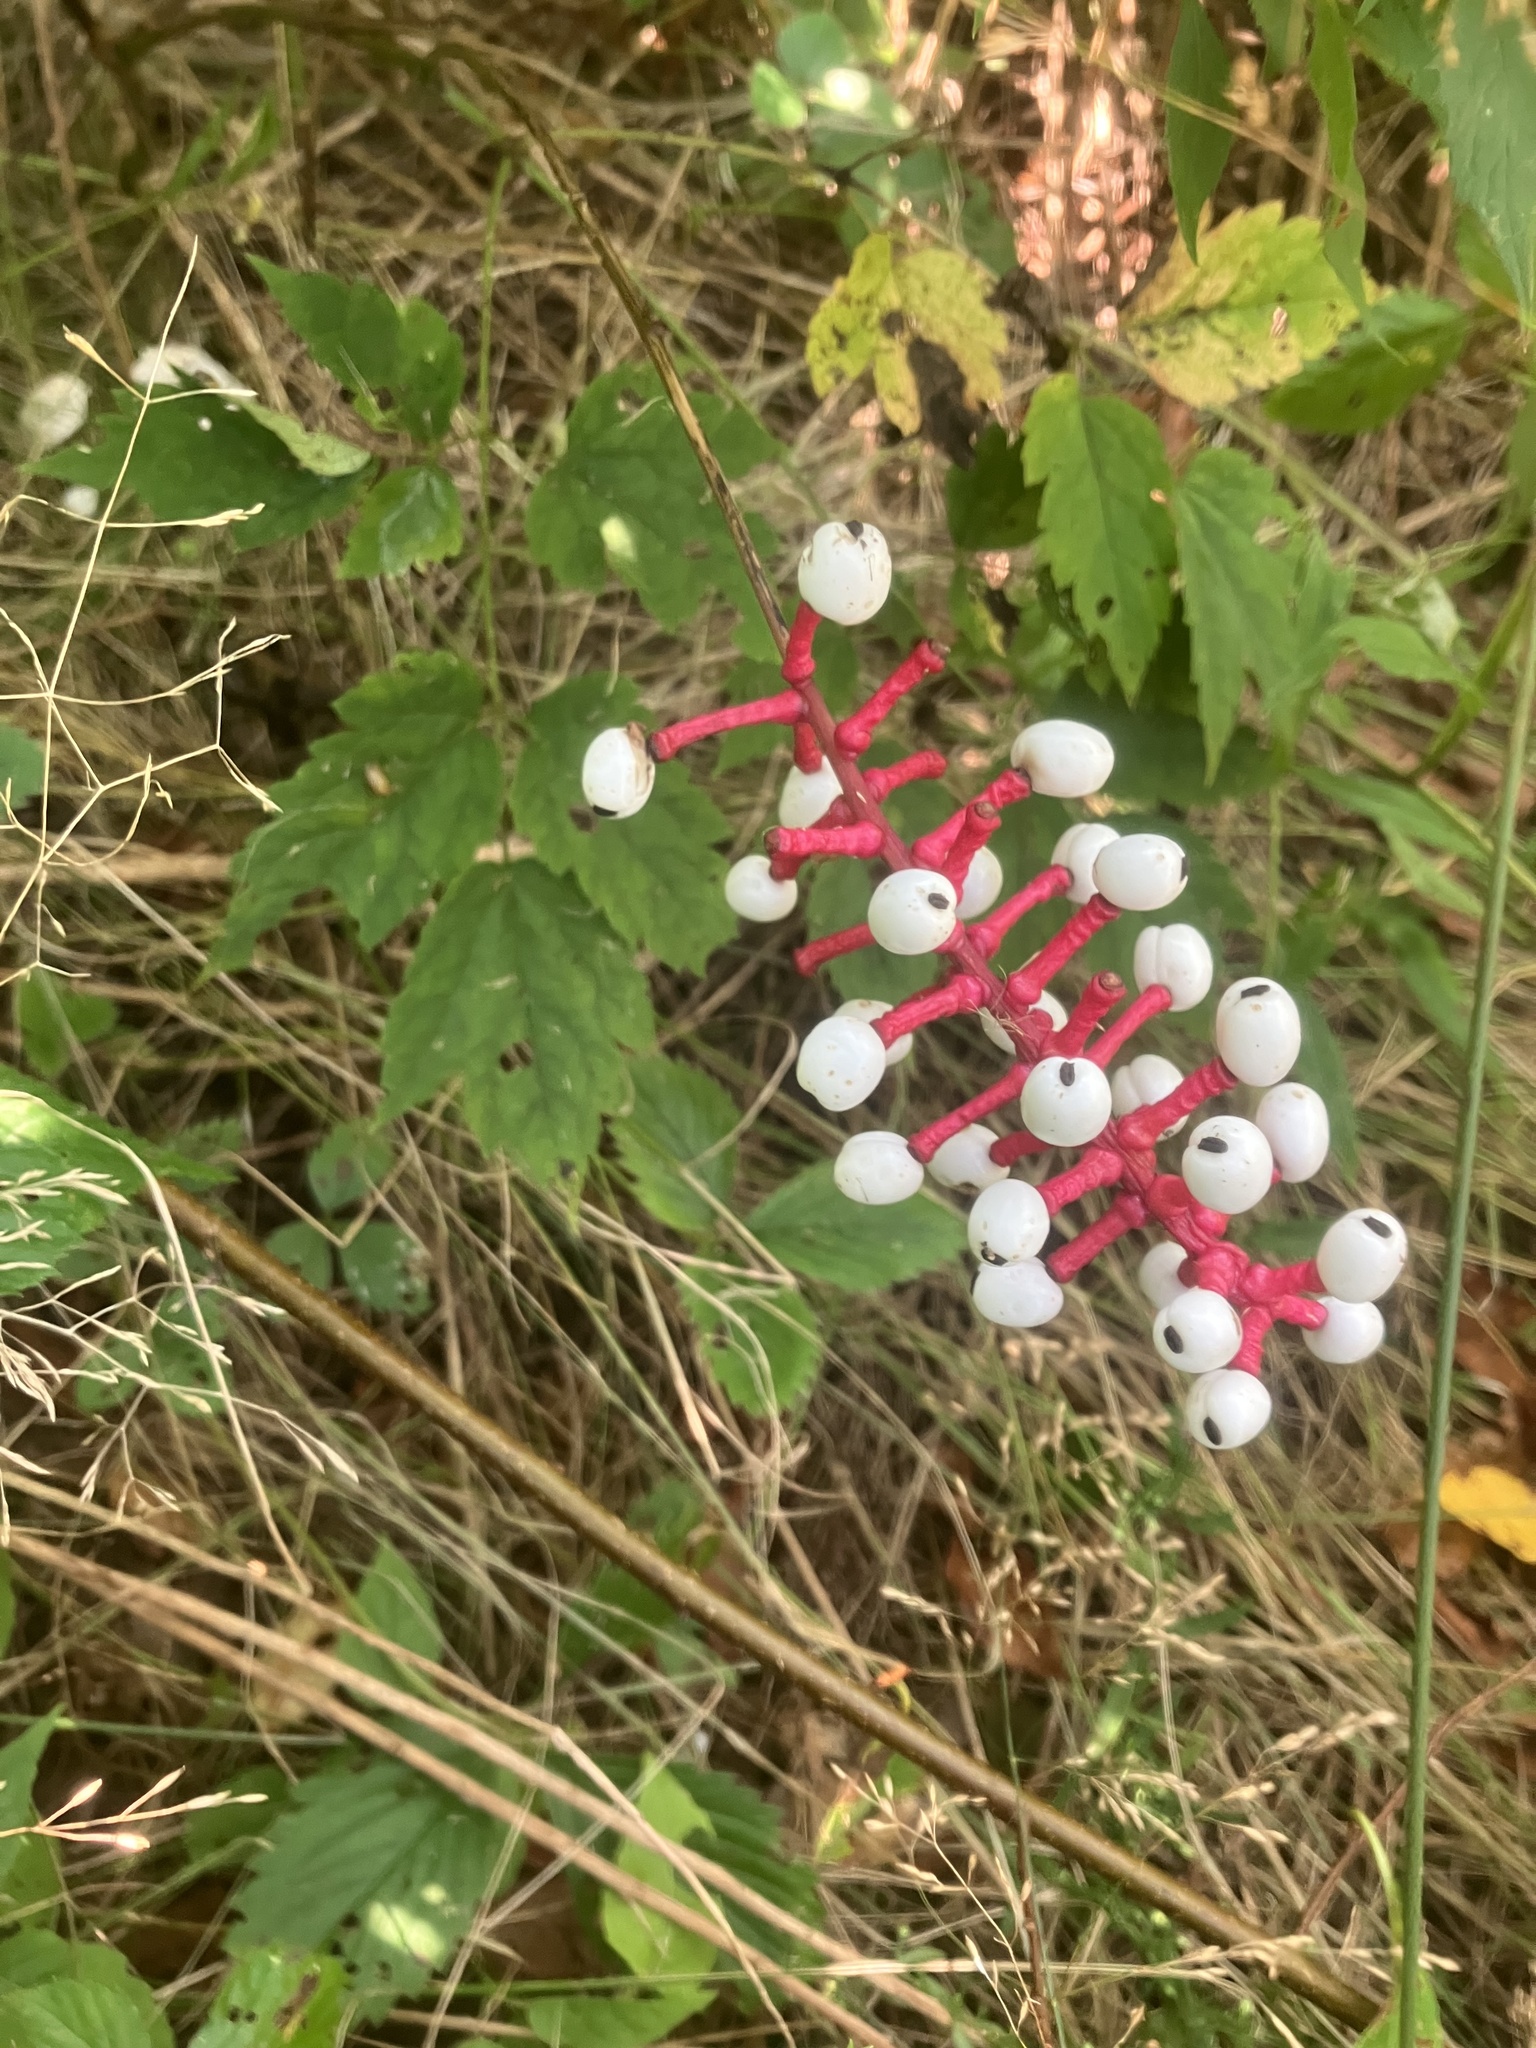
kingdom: Plantae
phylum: Tracheophyta
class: Magnoliopsida
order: Ranunculales
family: Ranunculaceae
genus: Actaea
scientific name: Actaea pachypoda
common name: Doll's-eyes
